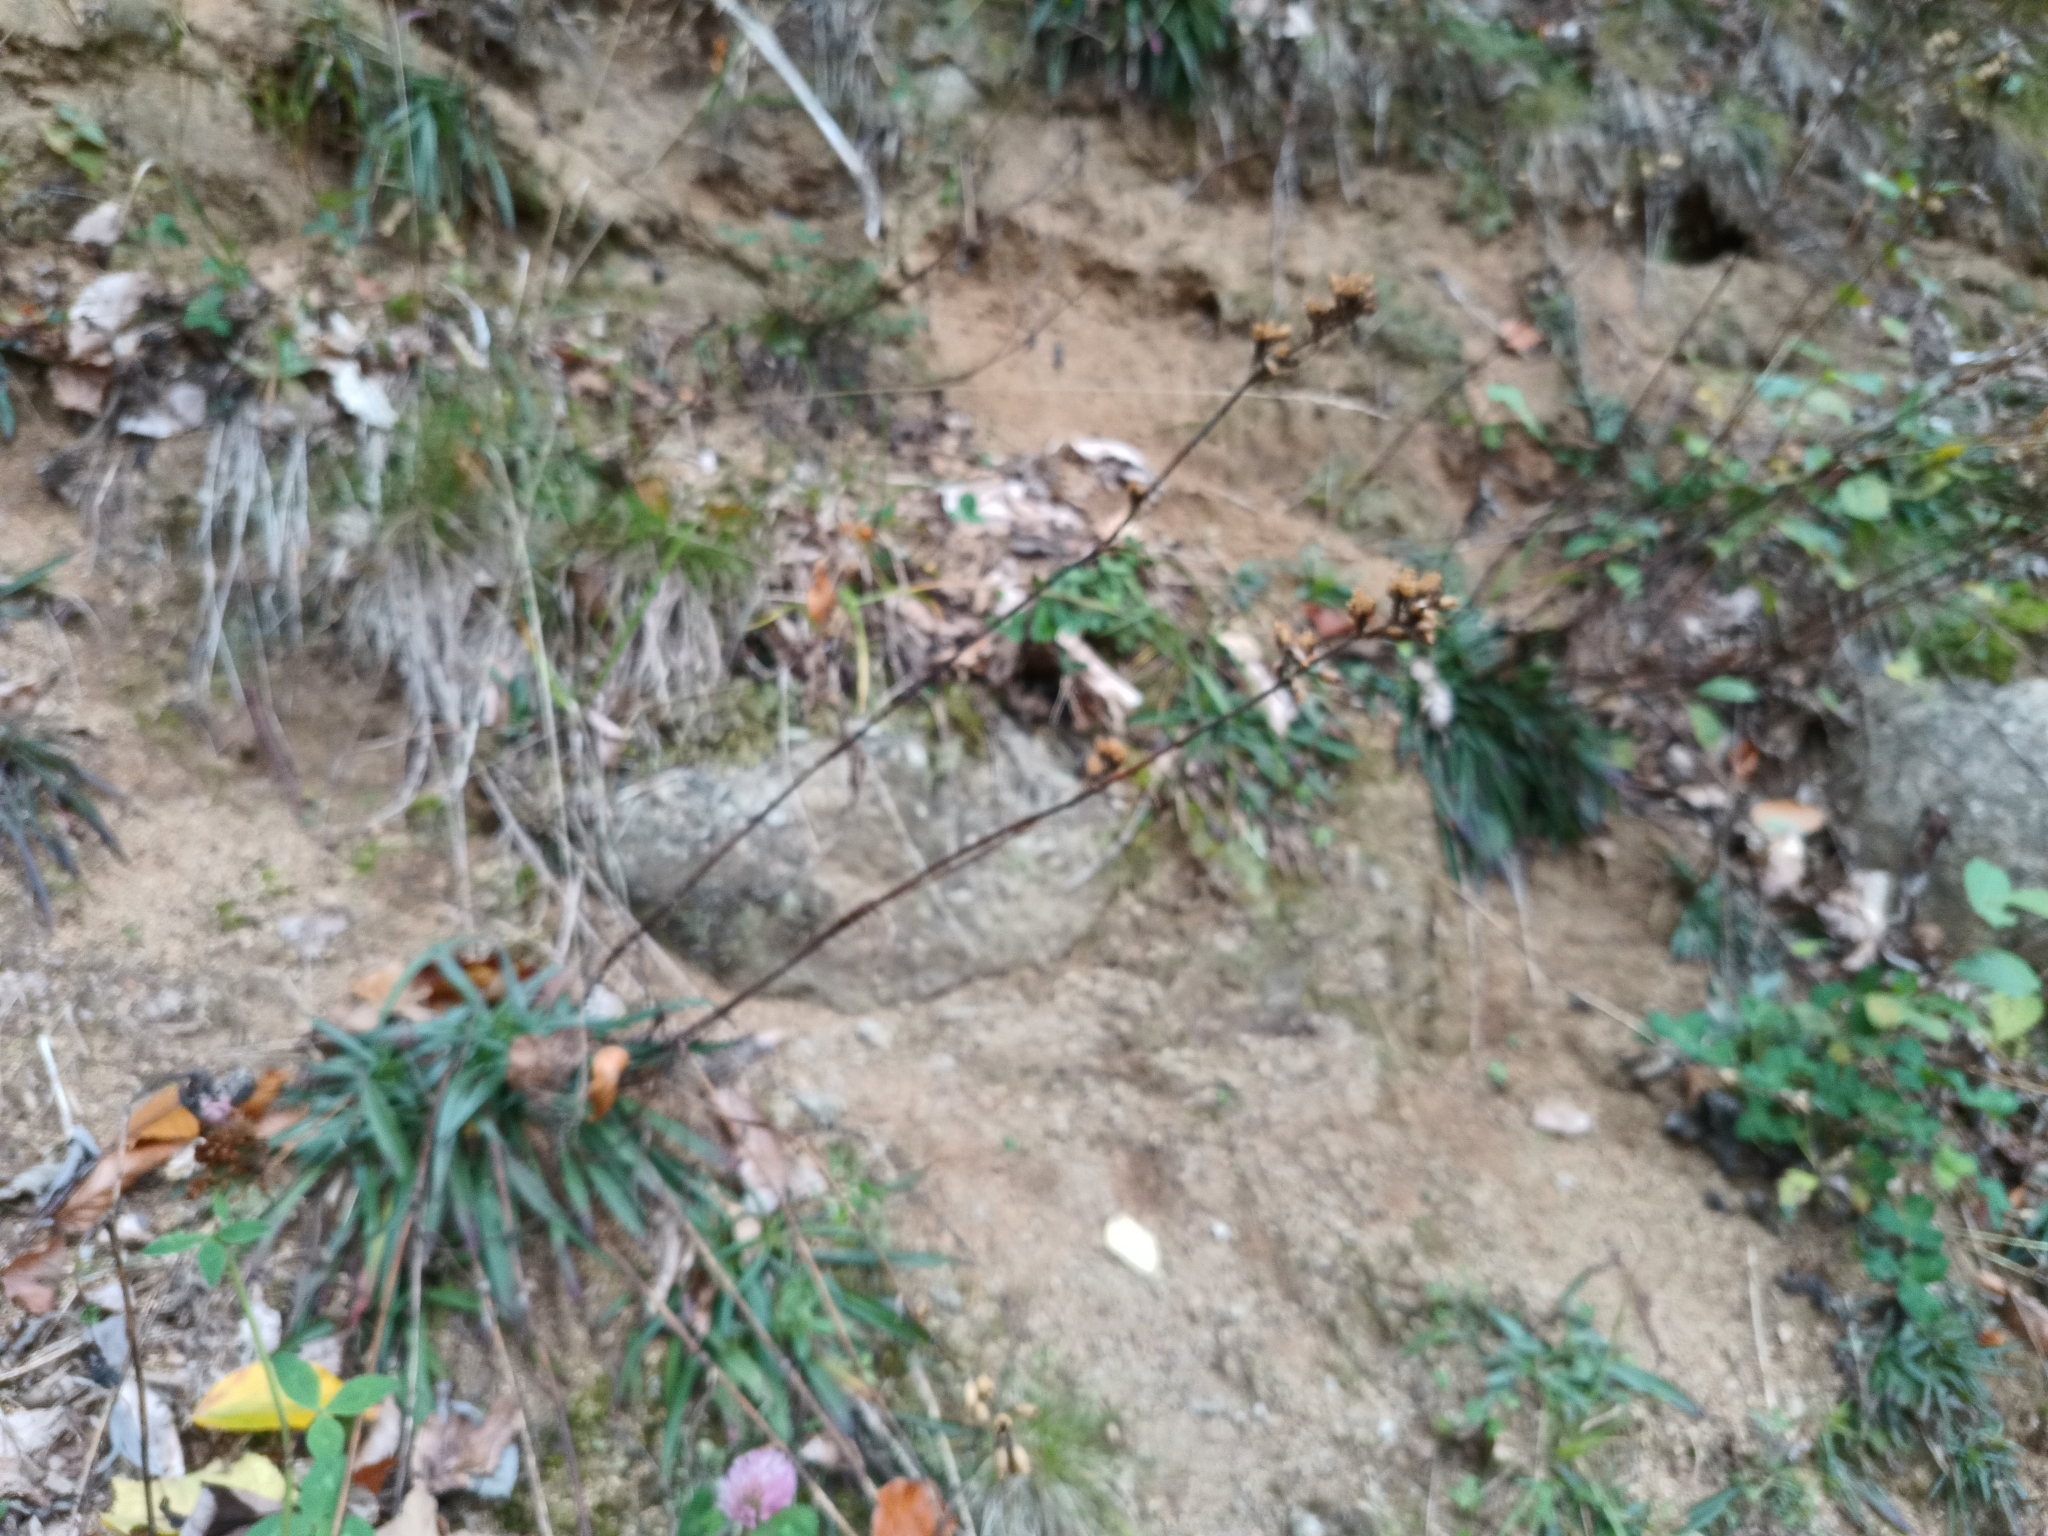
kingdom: Plantae
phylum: Tracheophyta
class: Magnoliopsida
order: Caryophyllales
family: Caryophyllaceae
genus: Viscaria
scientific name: Viscaria vulgaris
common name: Clammy campion
